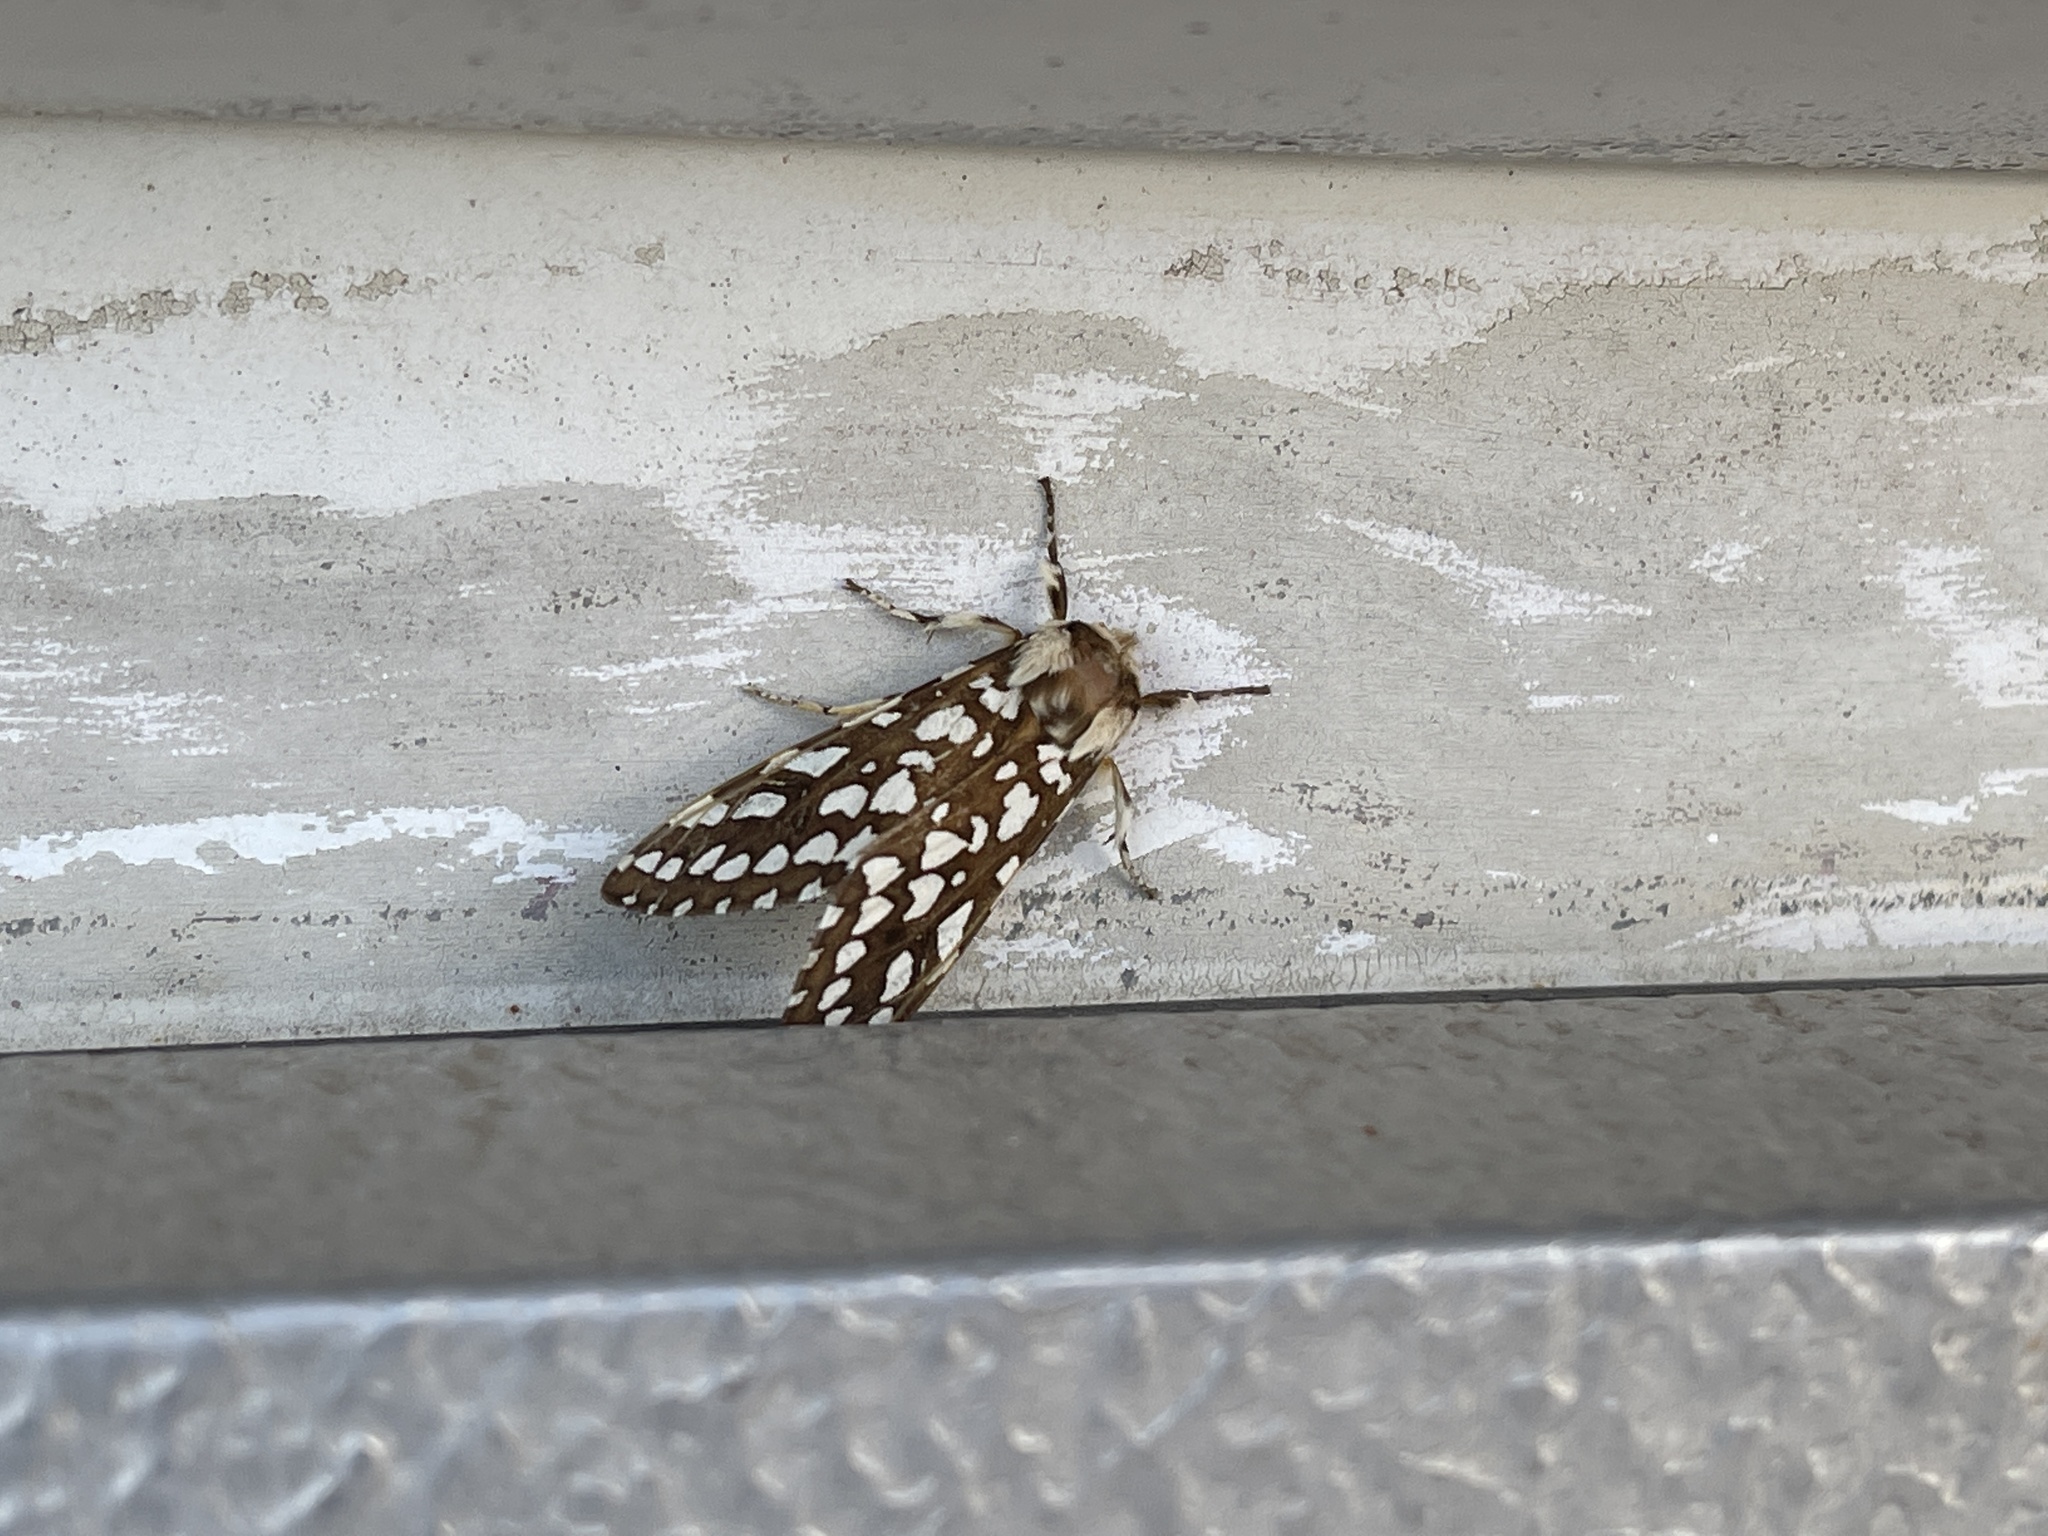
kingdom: Animalia
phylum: Arthropoda
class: Insecta
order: Lepidoptera
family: Erebidae
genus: Lophocampa
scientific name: Lophocampa ingens
